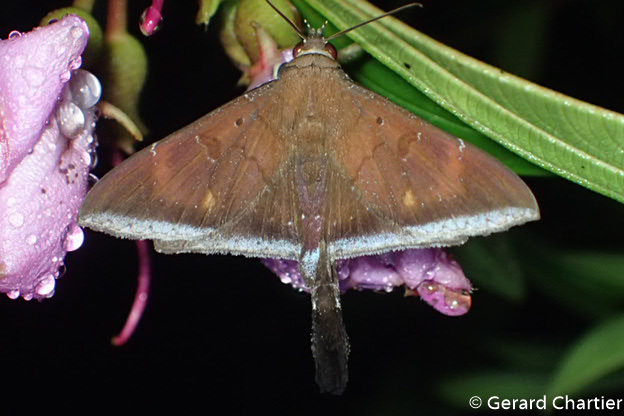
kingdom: Animalia
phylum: Arthropoda
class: Insecta
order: Lepidoptera
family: Erebidae
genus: Platyja
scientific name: Platyja umbrina
